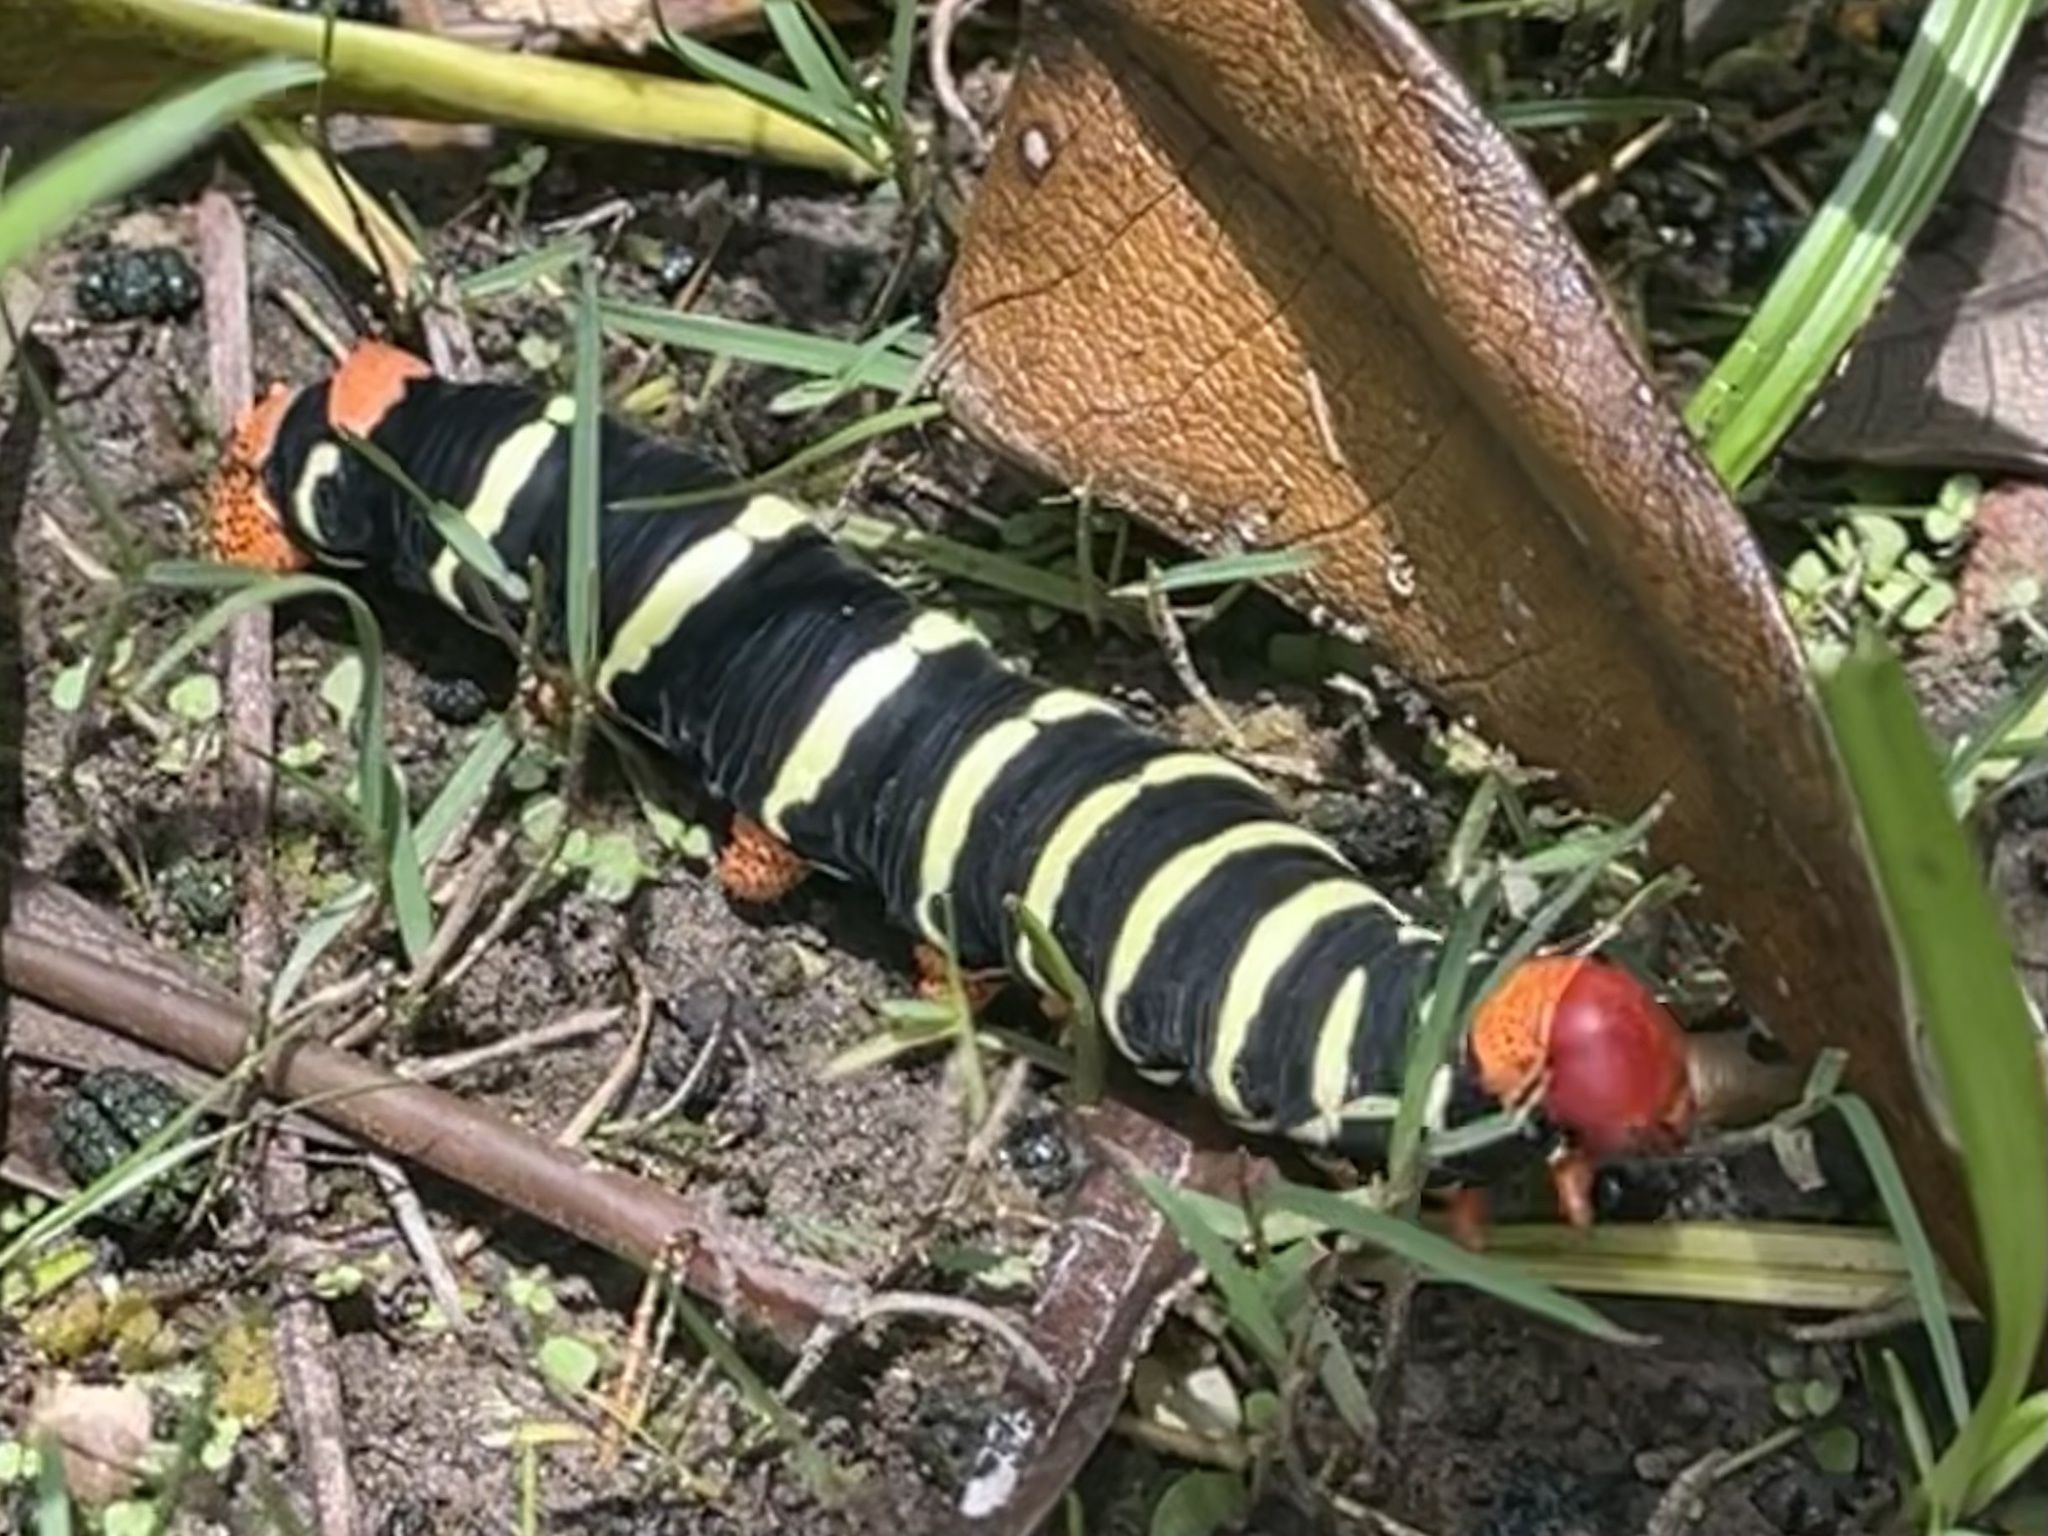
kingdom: Animalia
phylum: Arthropoda
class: Insecta
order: Lepidoptera
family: Sphingidae
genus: Pseudosphinx
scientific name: Pseudosphinx tetrio
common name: Tetrio sphinx
